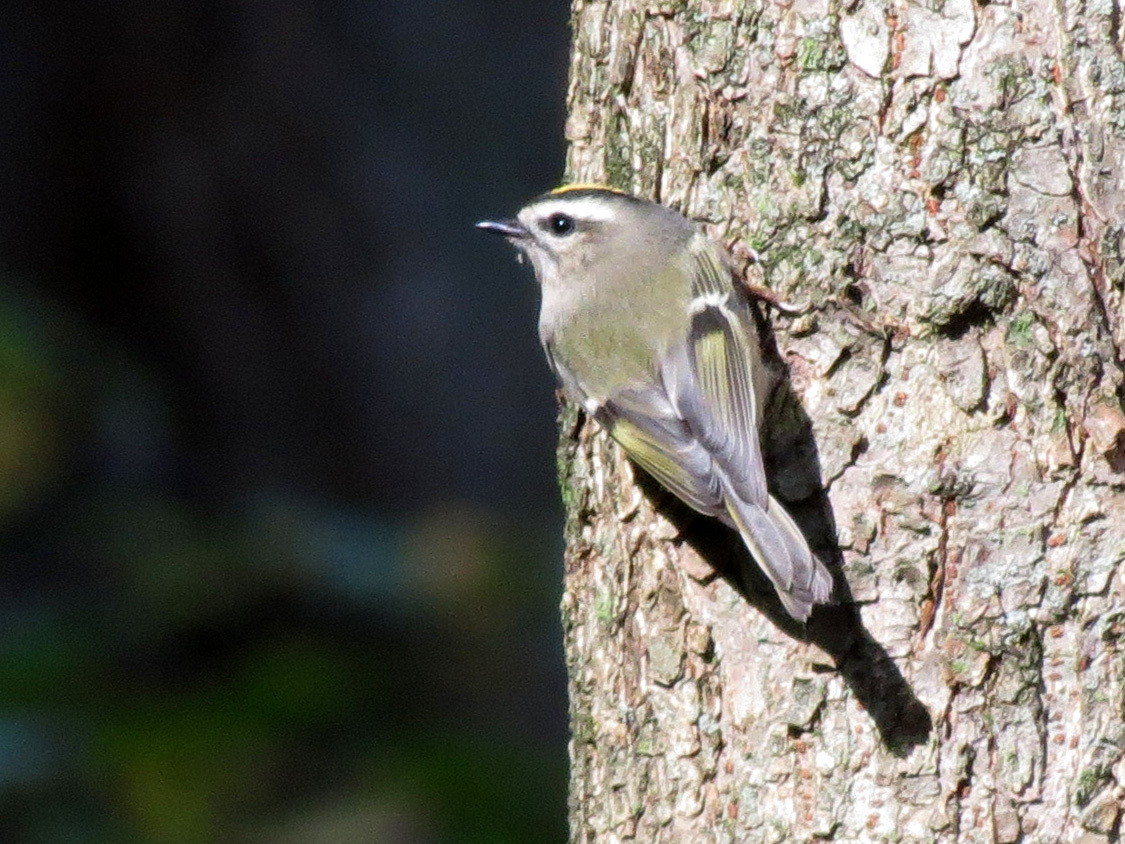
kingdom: Animalia
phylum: Chordata
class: Aves
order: Passeriformes
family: Regulidae
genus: Regulus
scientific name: Regulus satrapa
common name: Golden-crowned kinglet
